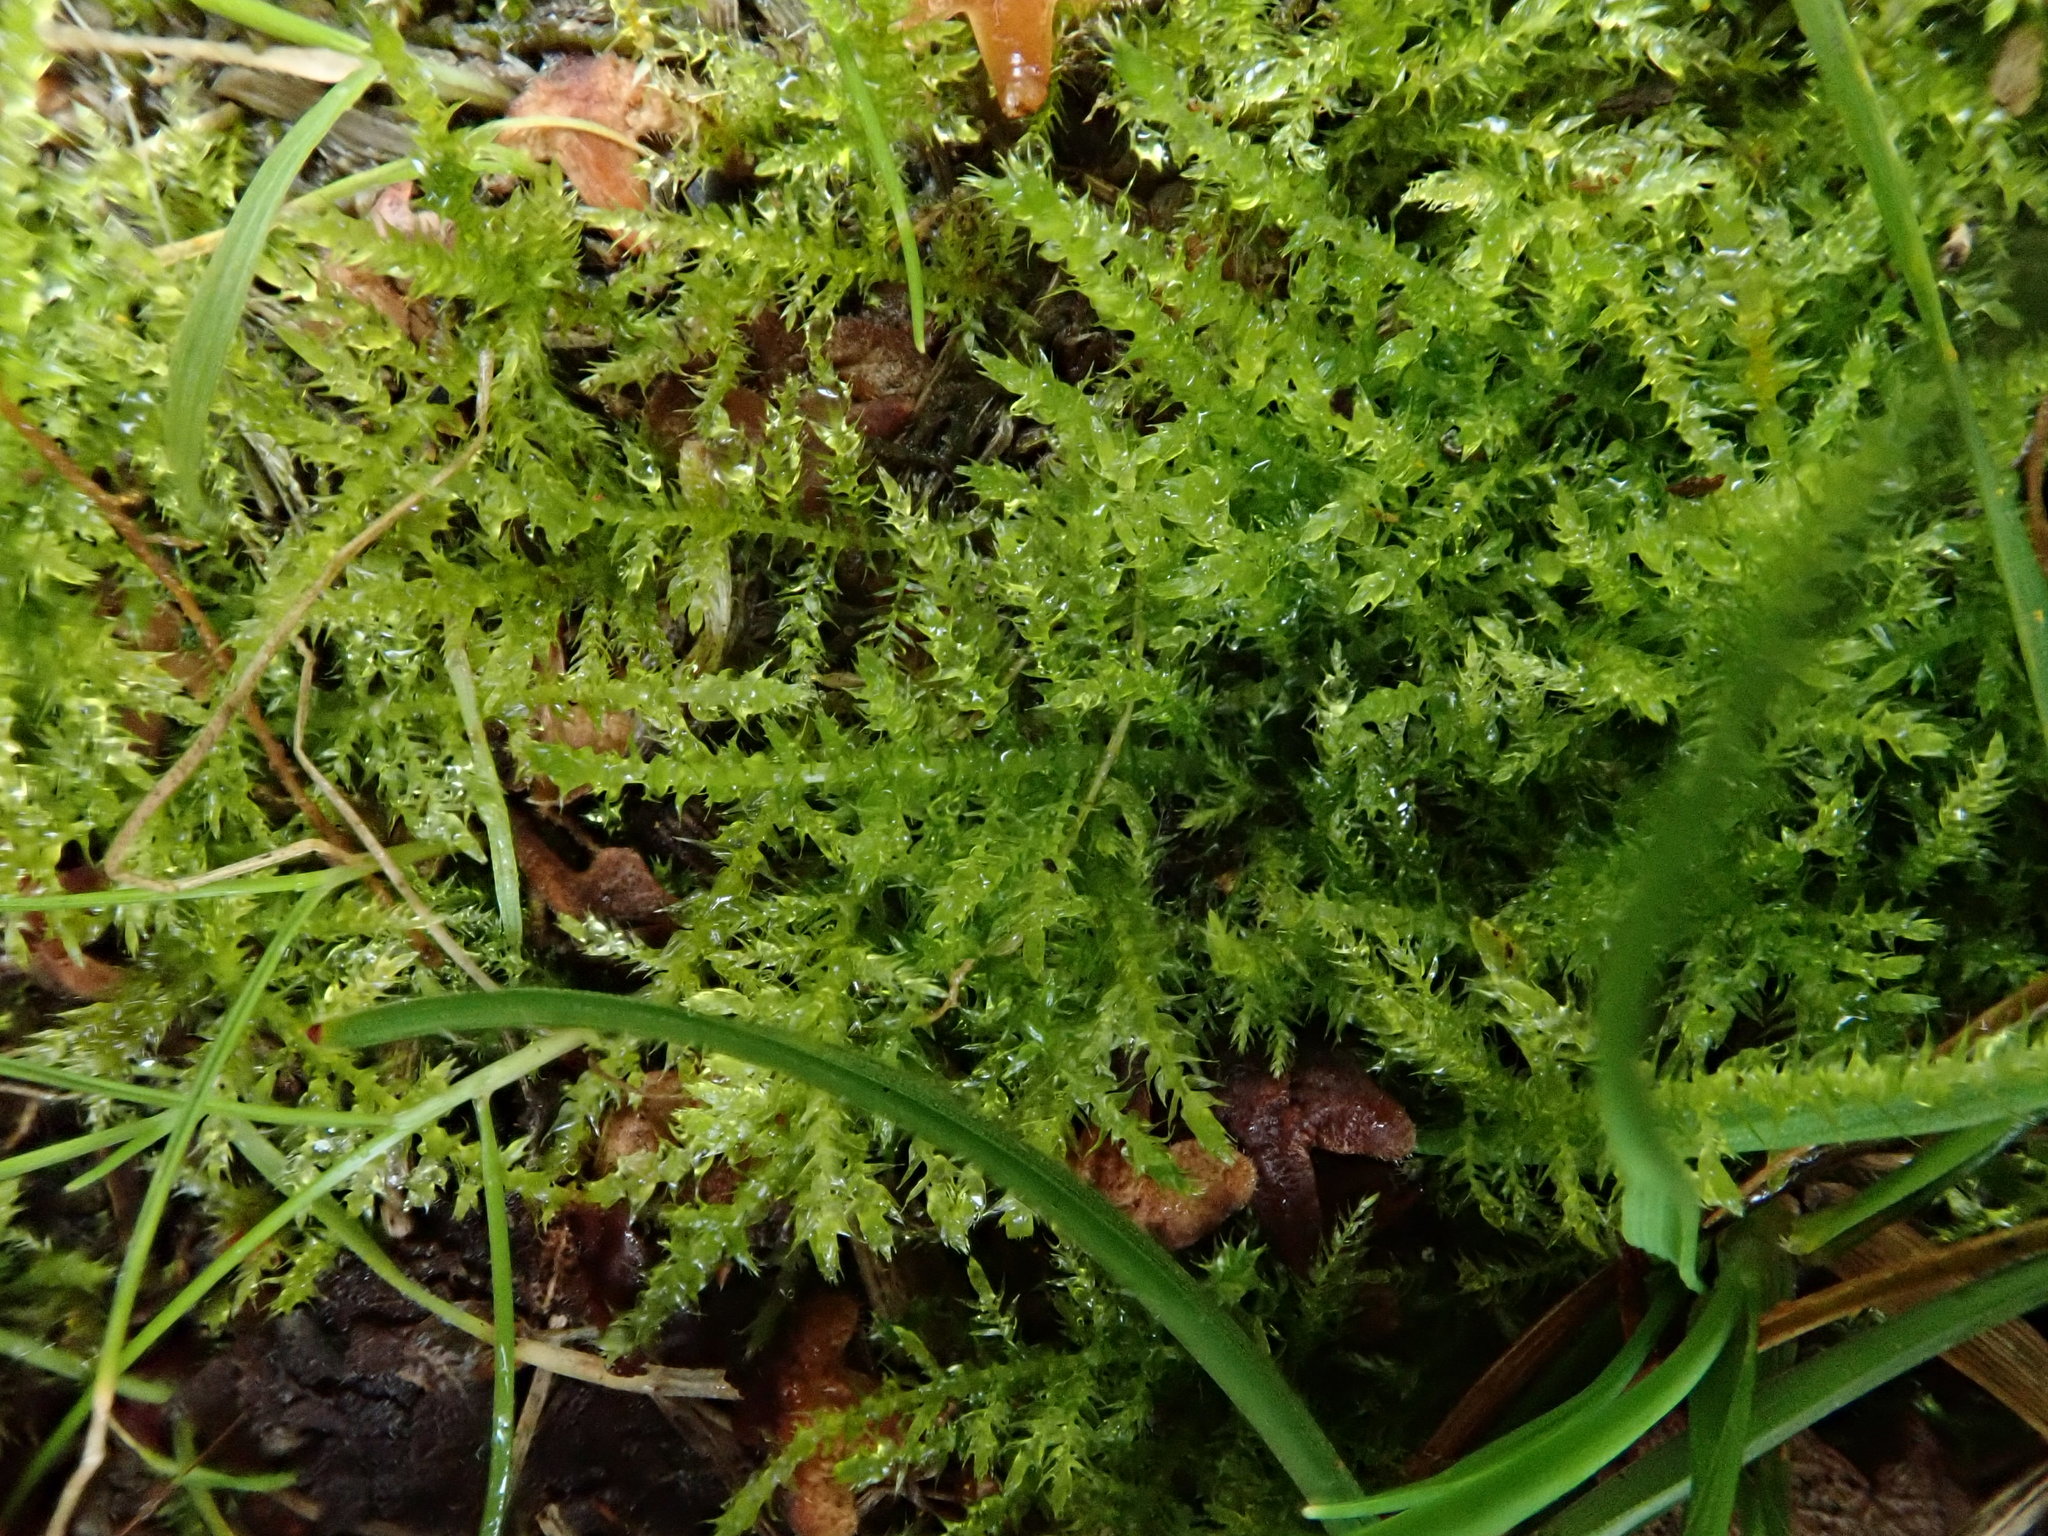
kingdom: Plantae
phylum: Bryophyta
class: Bryopsida
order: Hypnales
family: Brachytheciaceae
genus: Kindbergia
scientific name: Kindbergia praelonga
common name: Slender beaked moss
